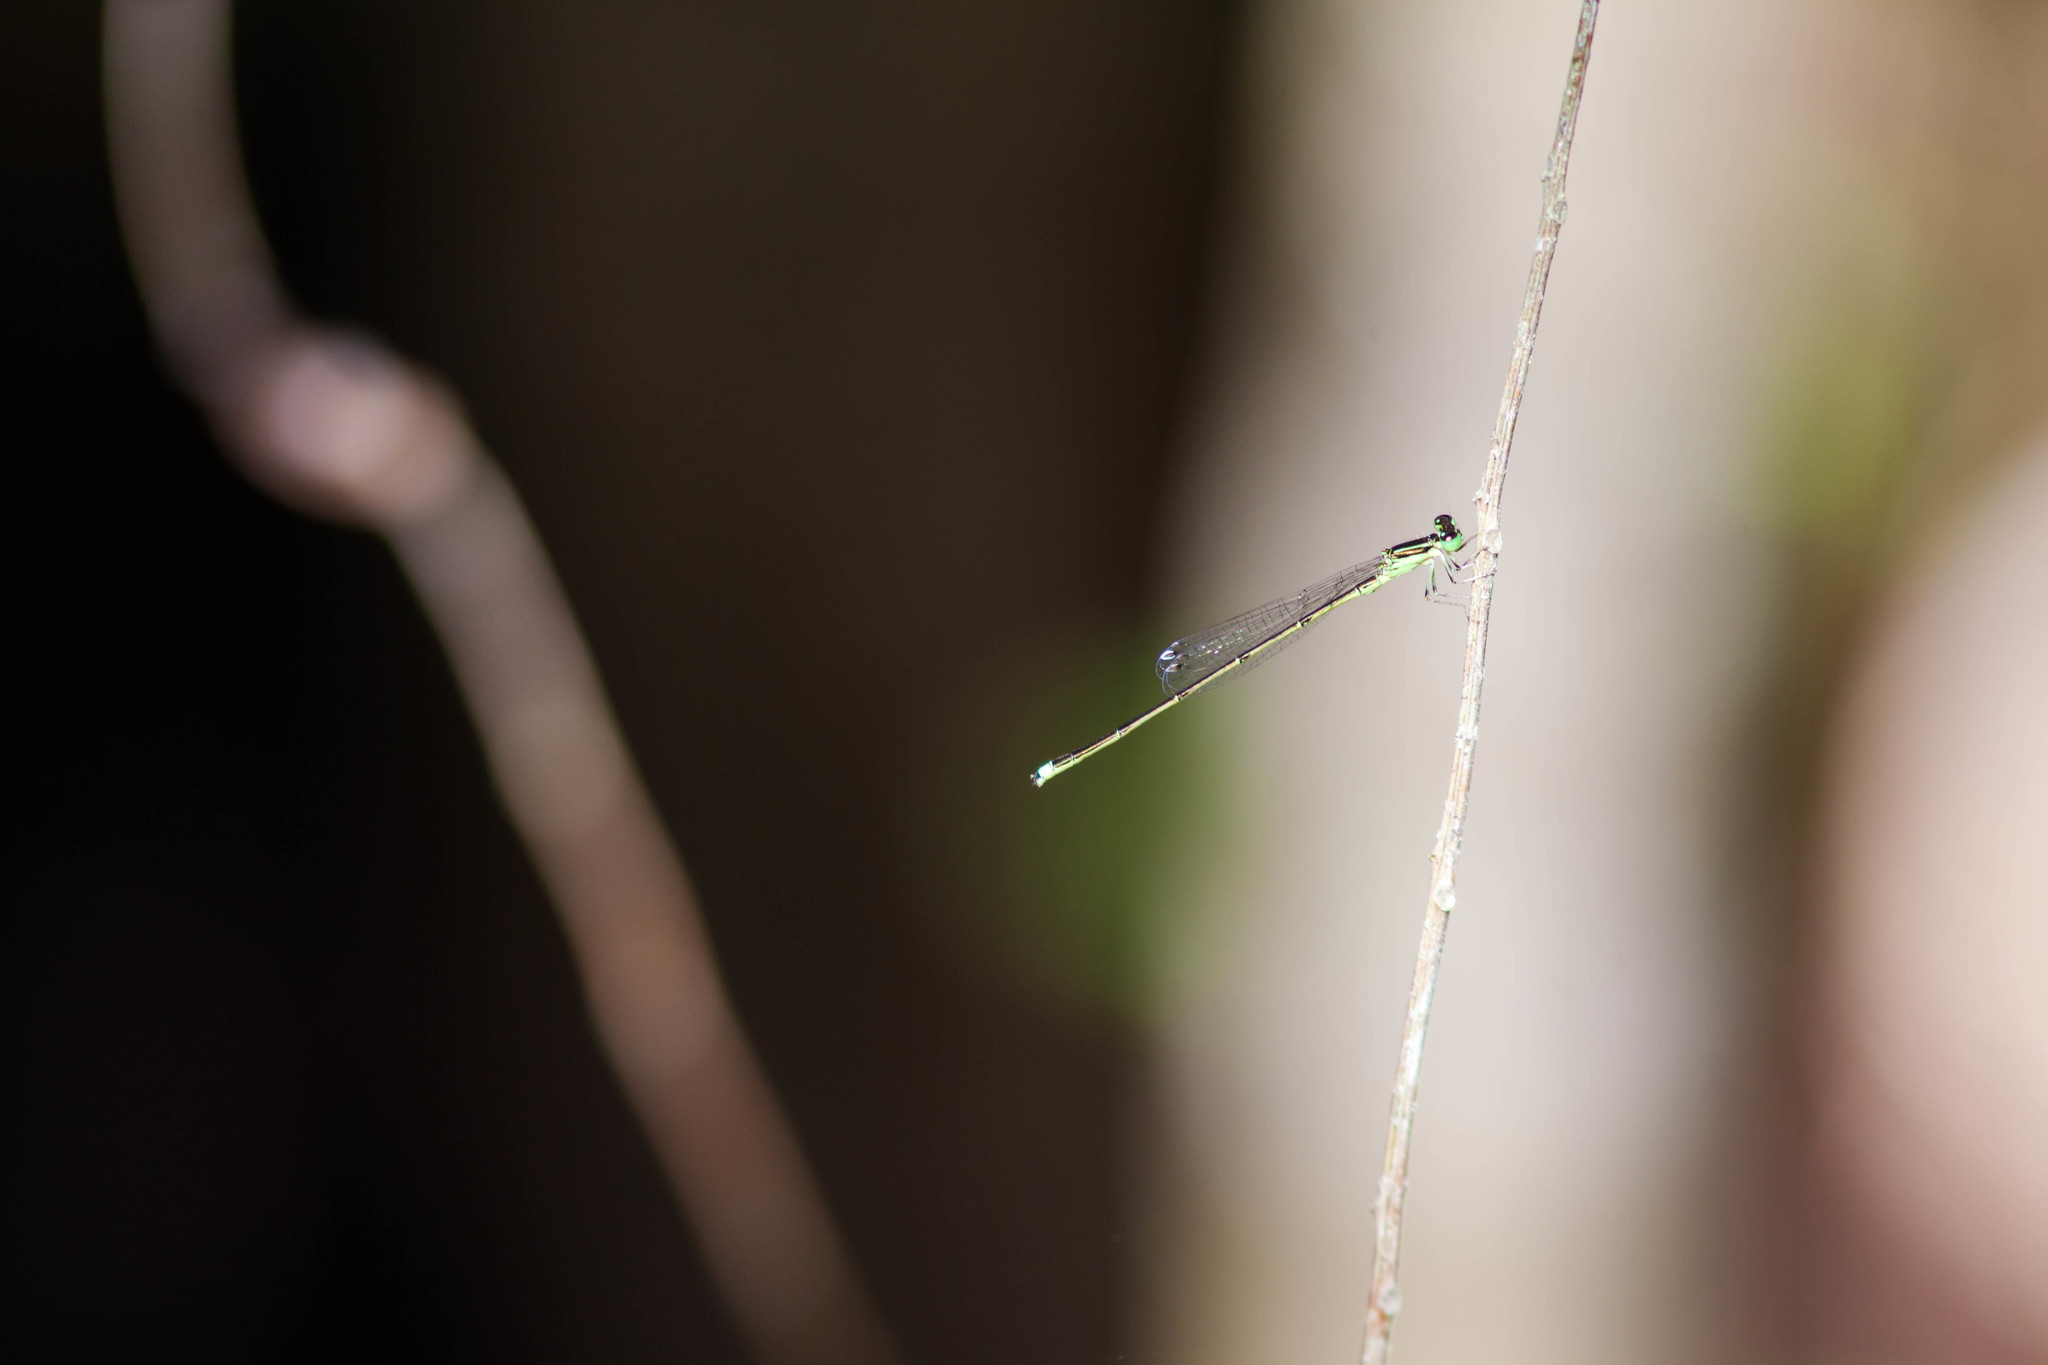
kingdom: Animalia
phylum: Arthropoda
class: Insecta
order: Odonata
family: Coenagrionidae
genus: Ischnura
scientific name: Ischnura prognata
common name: Furtive forktail
